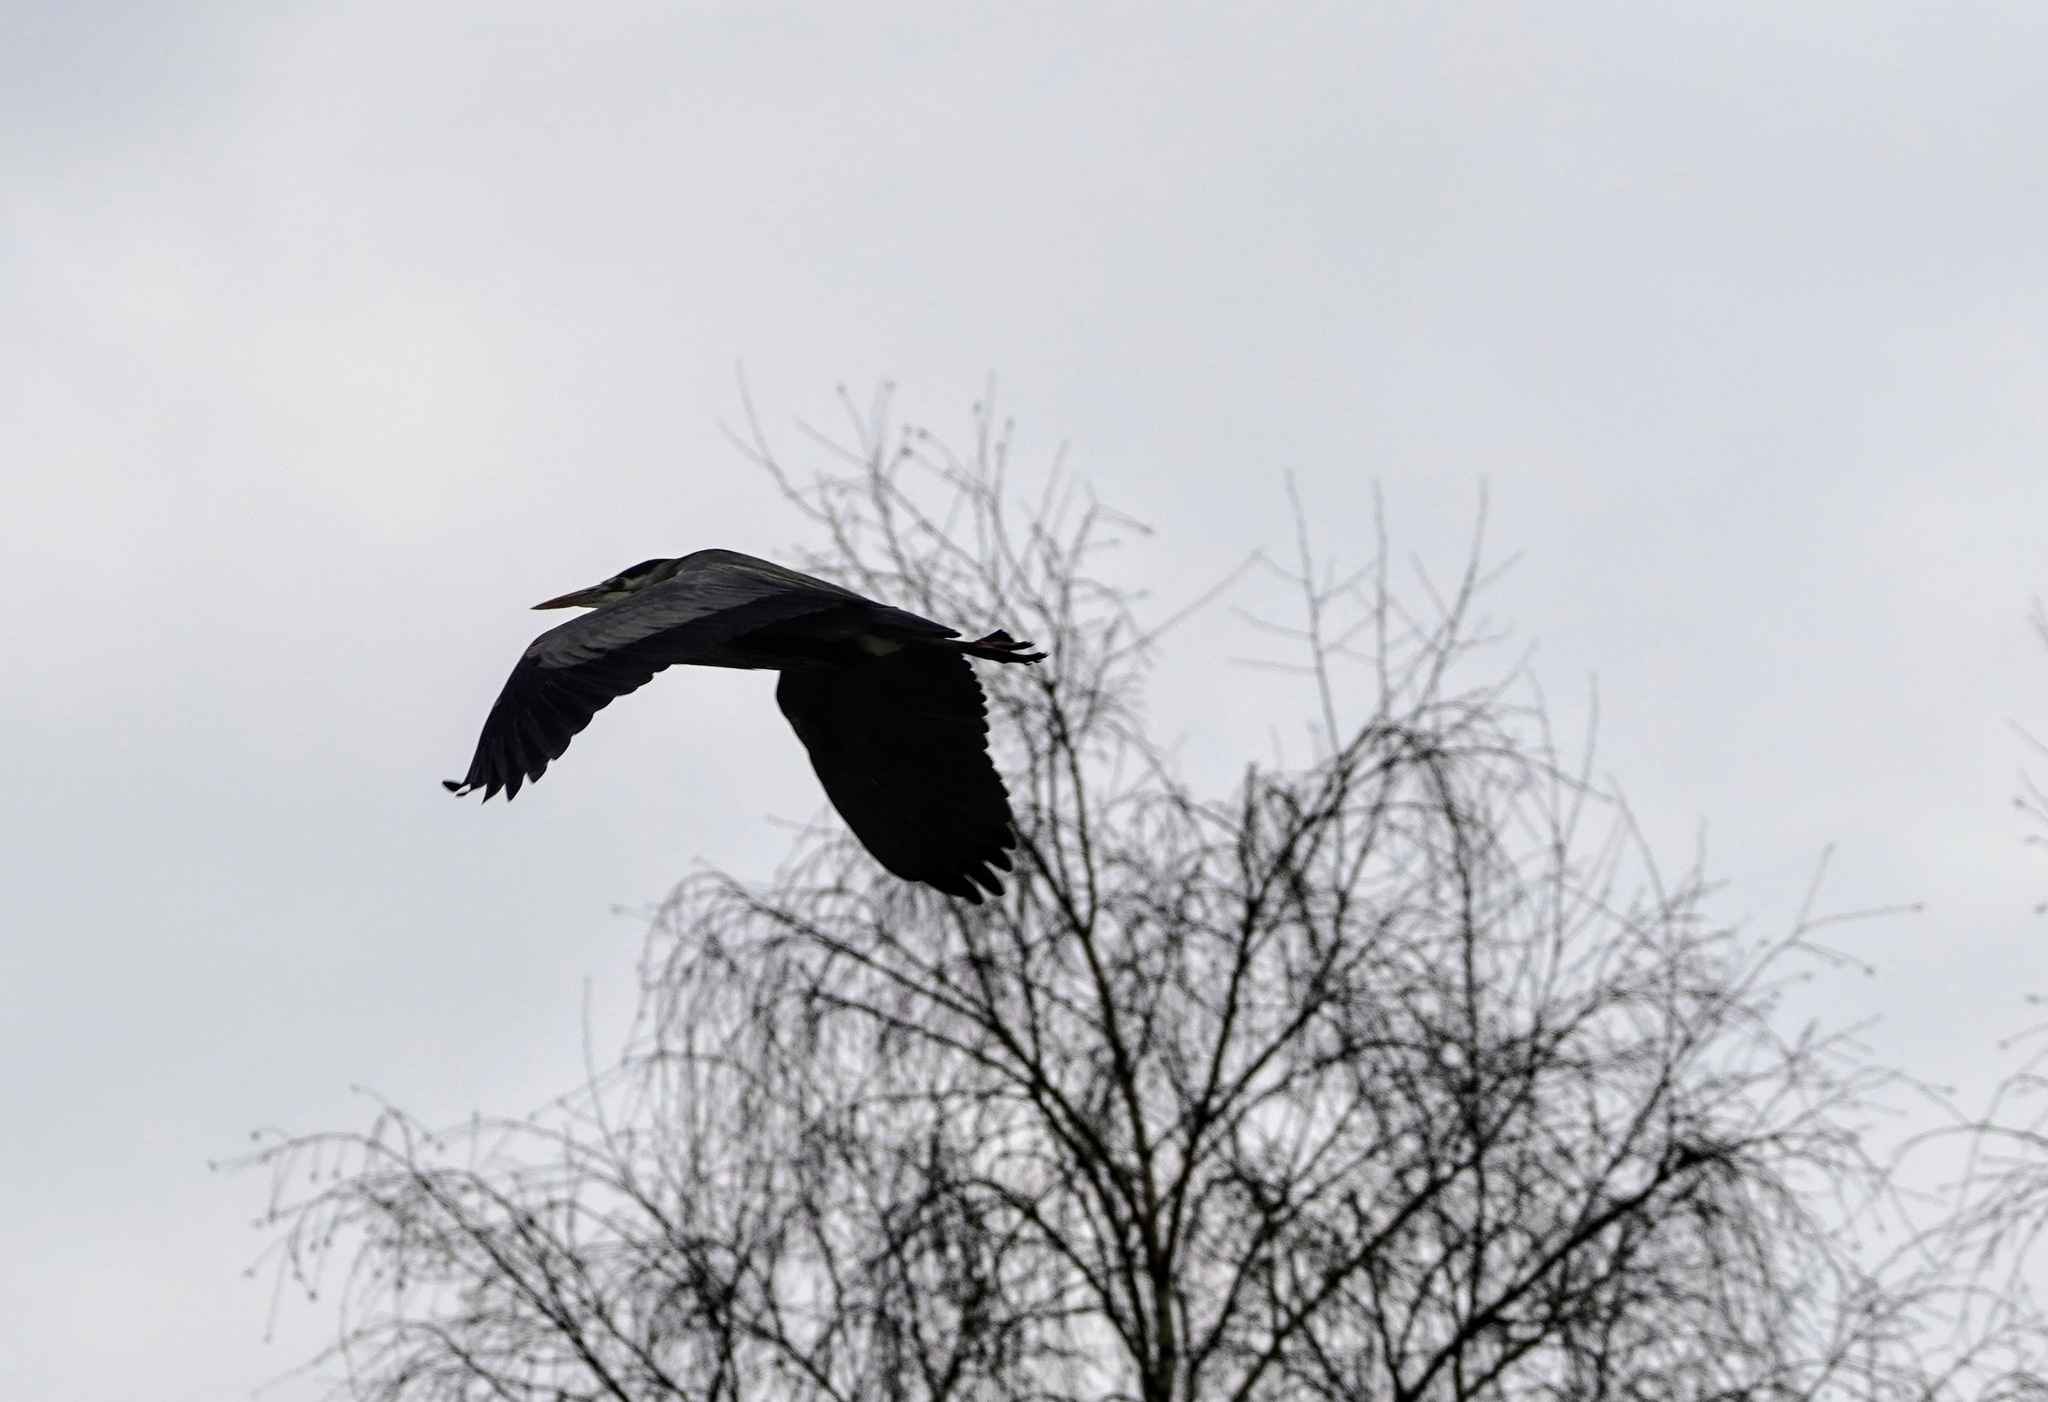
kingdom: Animalia
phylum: Chordata
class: Aves
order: Pelecaniformes
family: Ardeidae
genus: Ardea
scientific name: Ardea herodias
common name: Great blue heron
